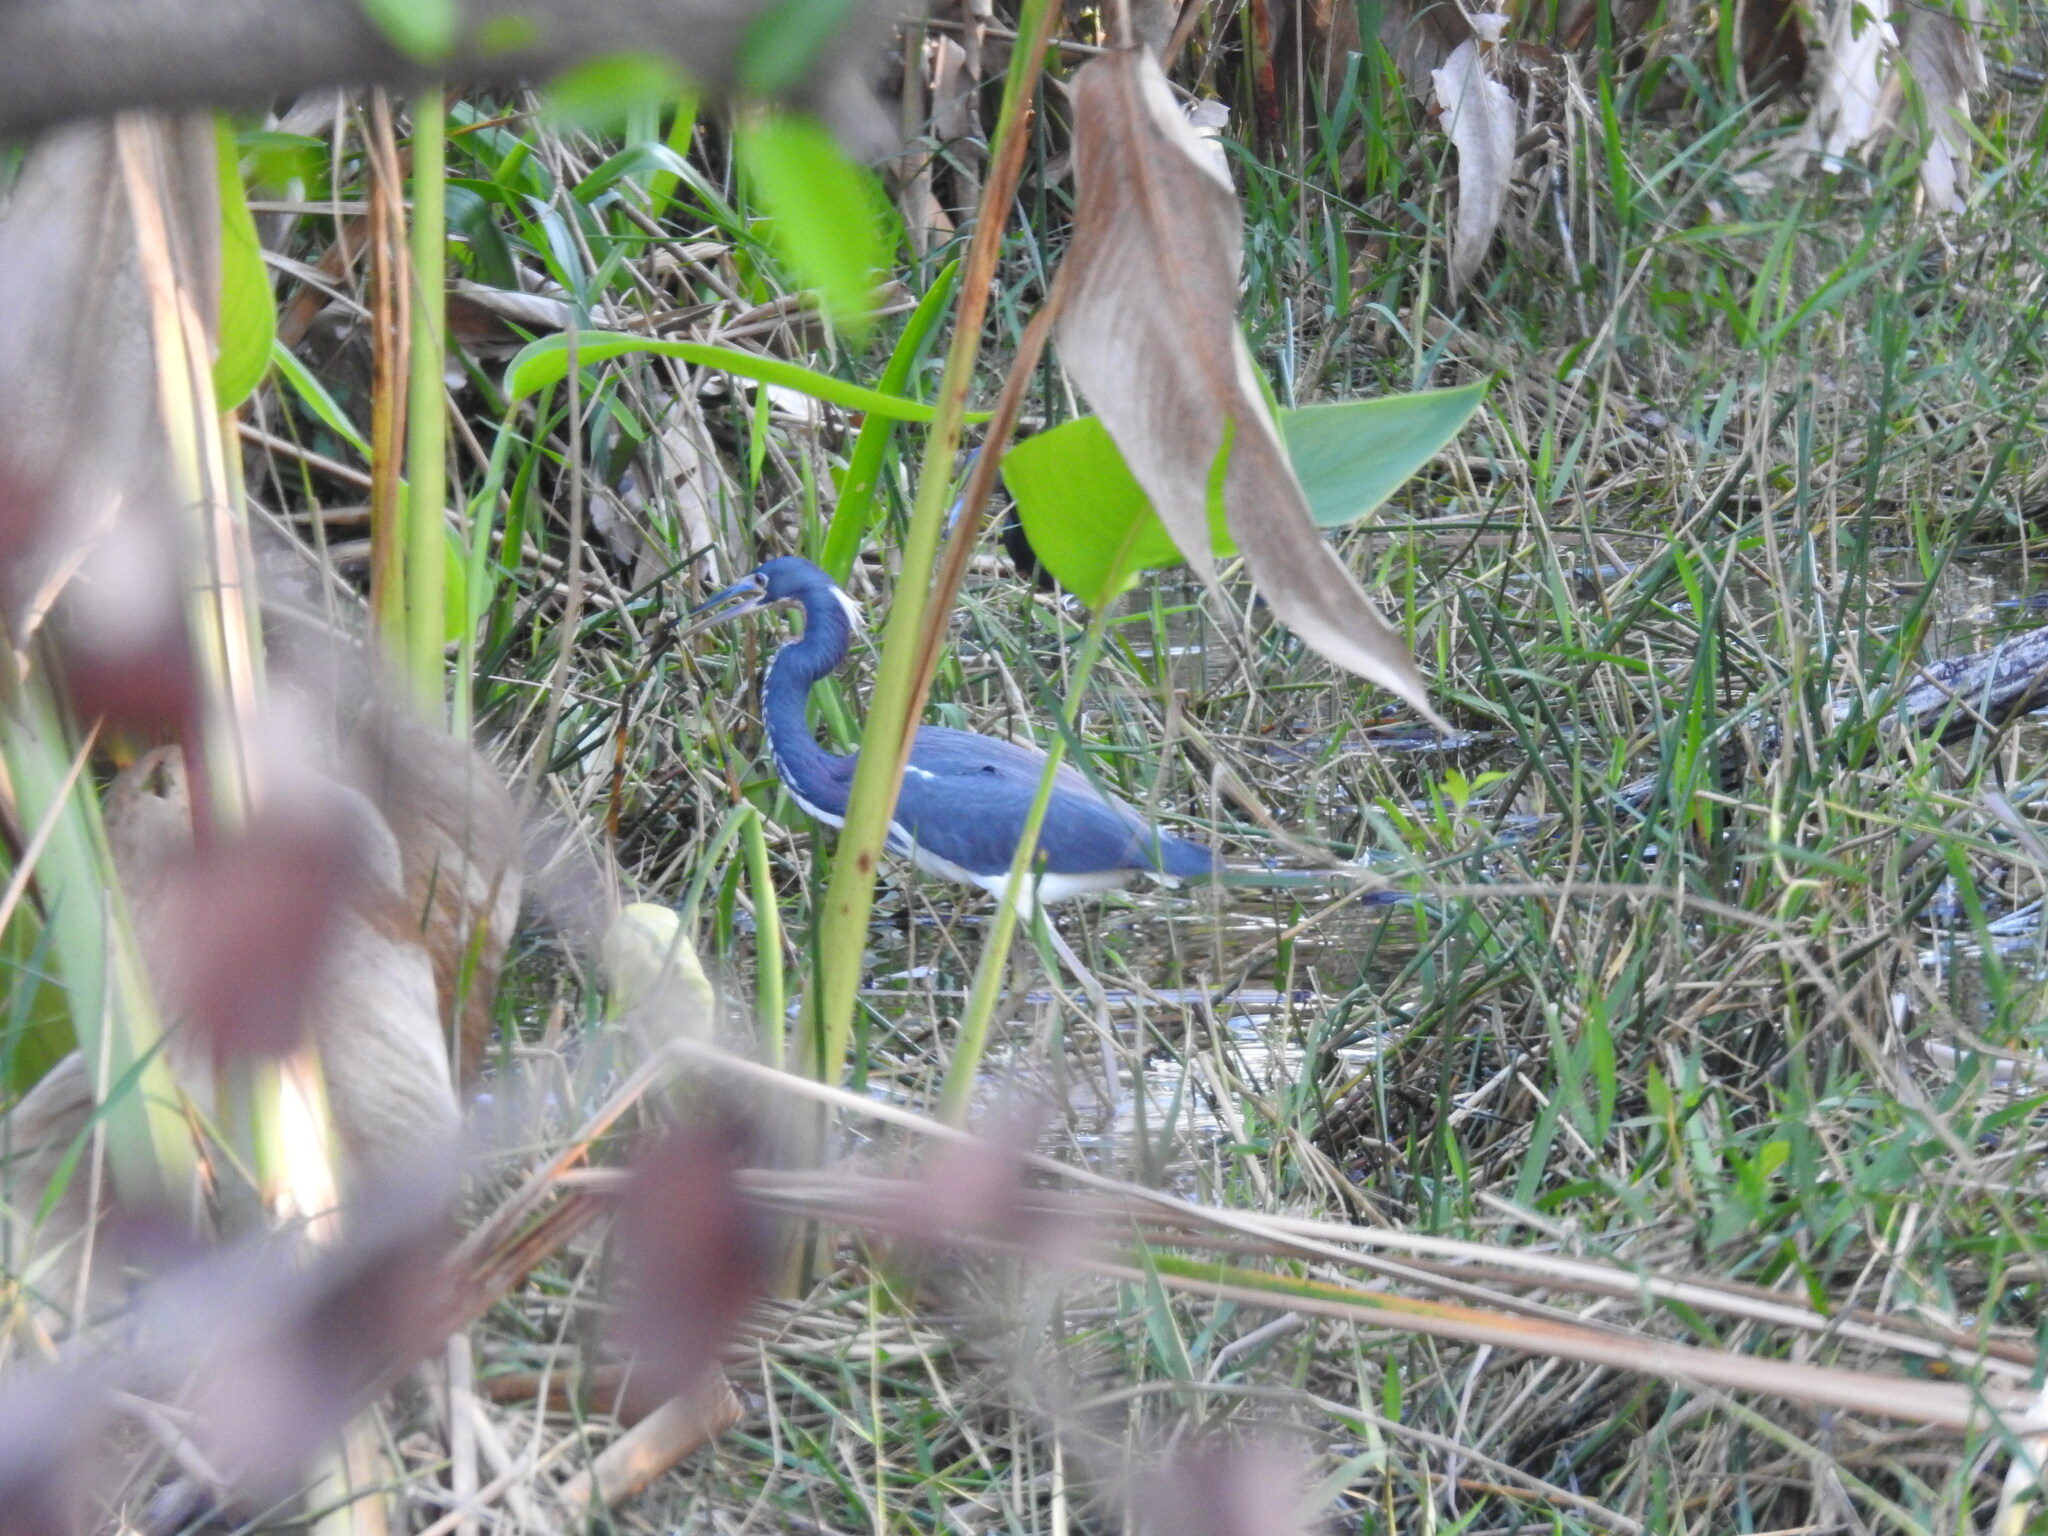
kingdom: Animalia
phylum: Chordata
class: Aves
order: Pelecaniformes
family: Ardeidae
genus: Egretta
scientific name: Egretta tricolor
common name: Tricolored heron
